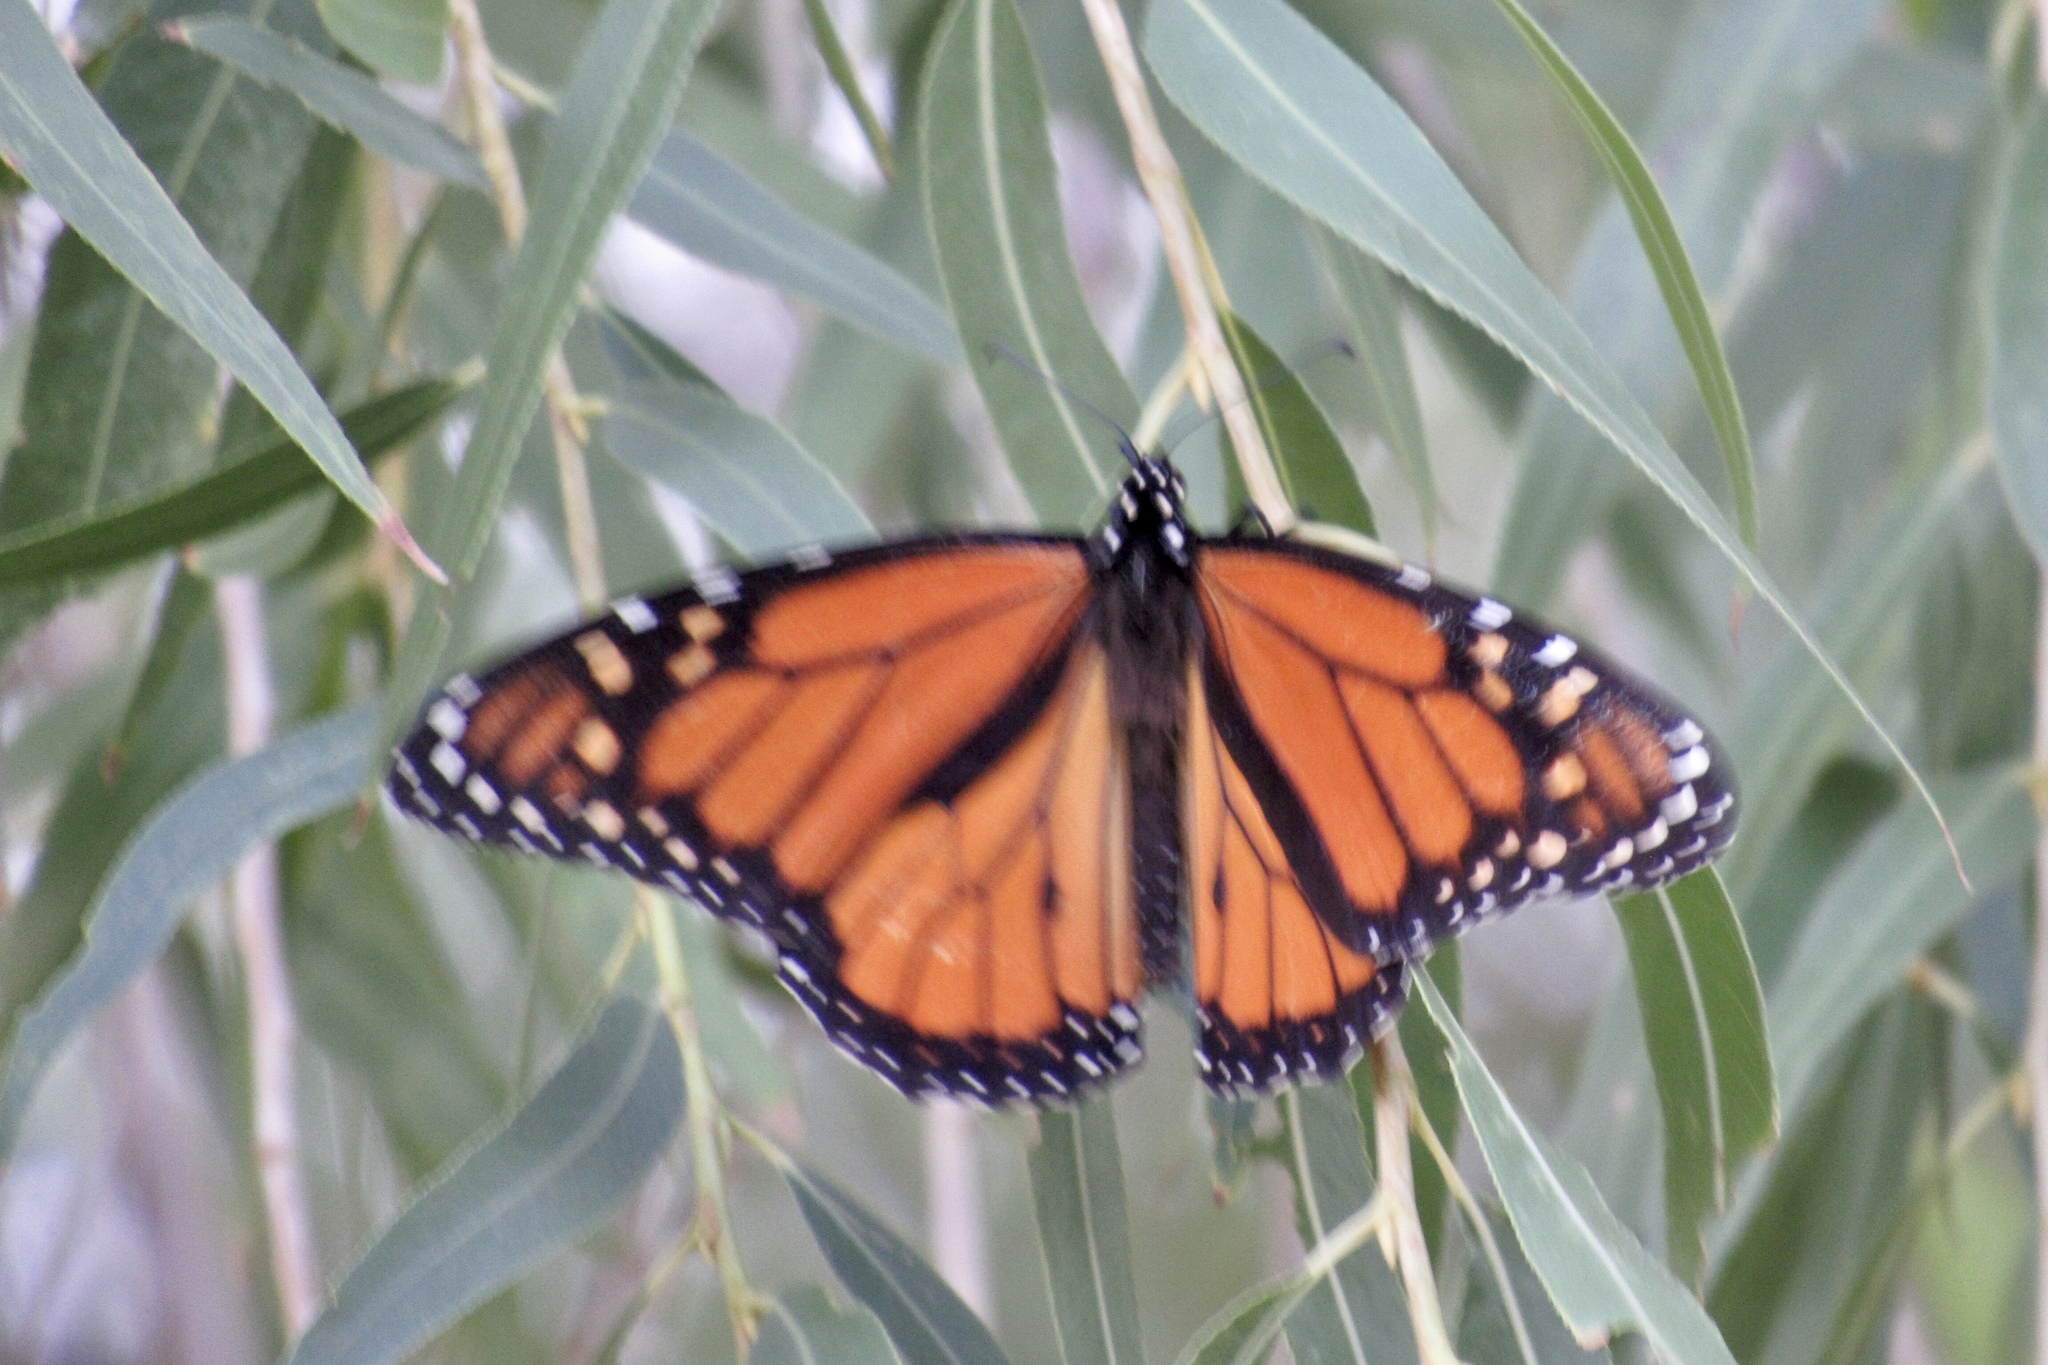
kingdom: Animalia
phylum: Arthropoda
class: Insecta
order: Lepidoptera
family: Nymphalidae
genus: Danaus
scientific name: Danaus plexippus
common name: Monarch
